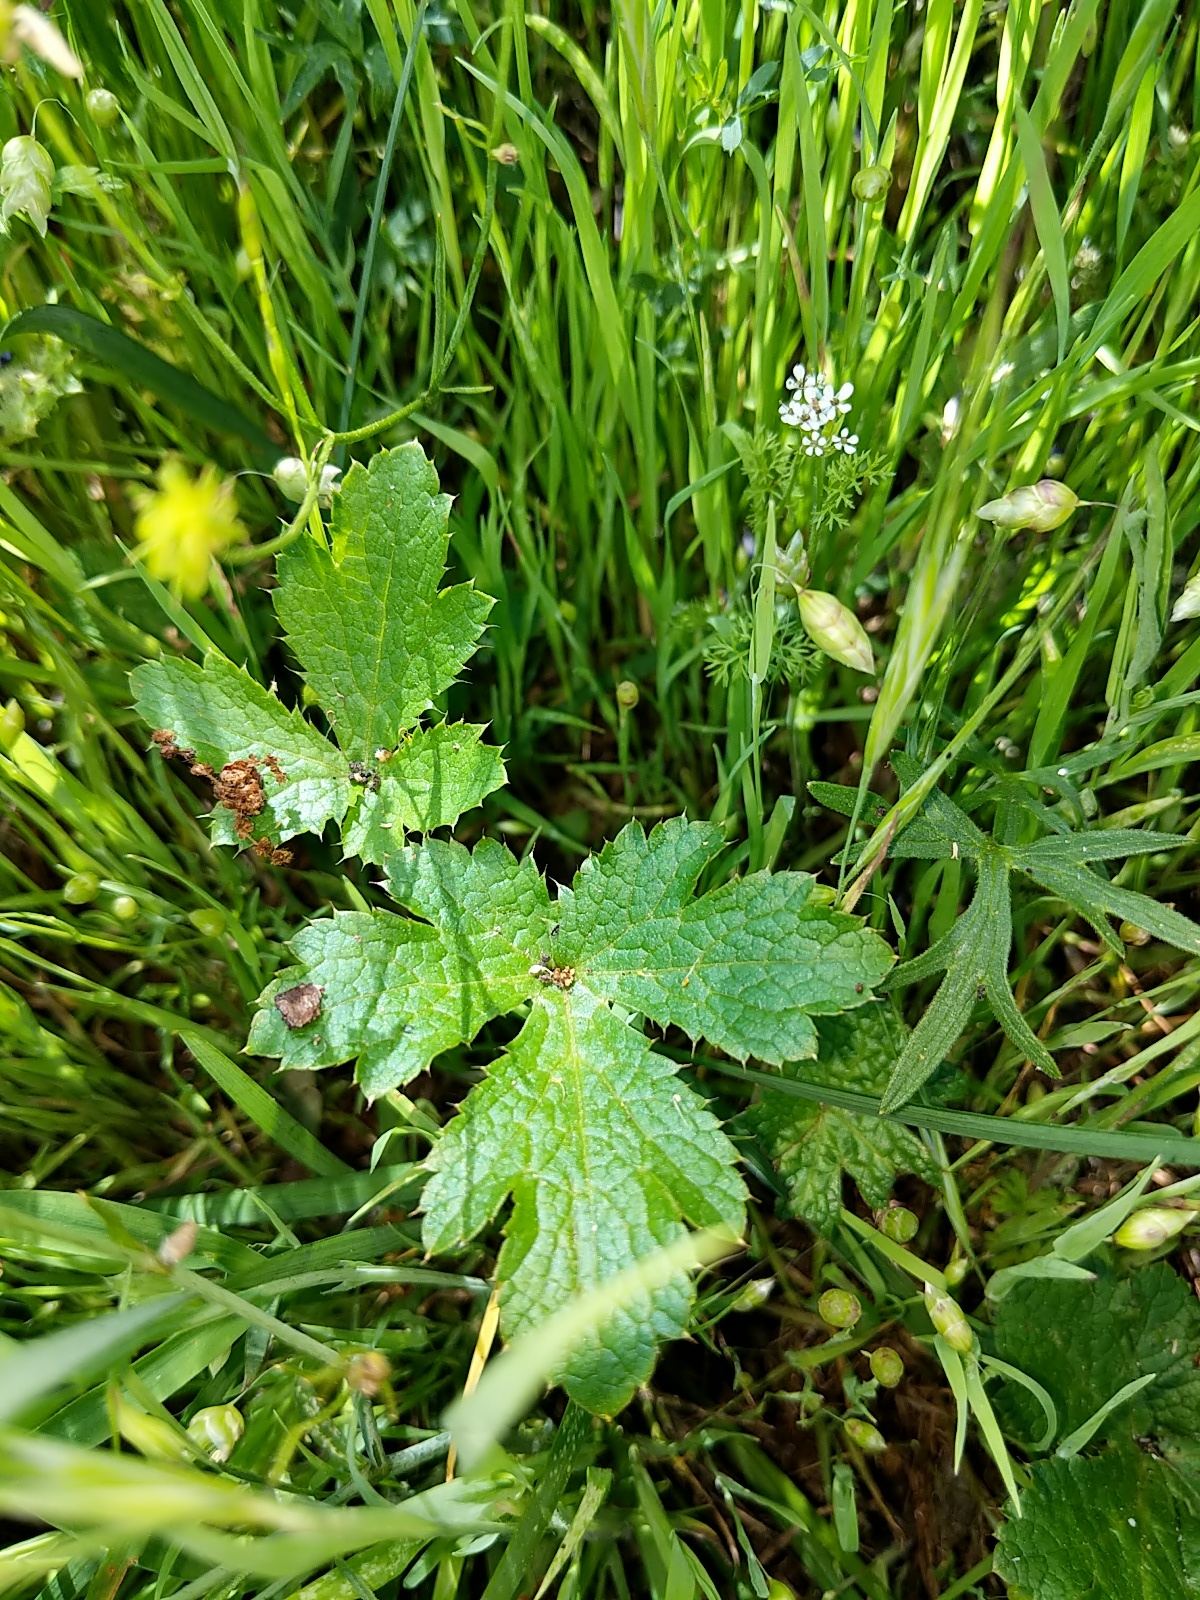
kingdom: Plantae
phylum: Tracheophyta
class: Magnoliopsida
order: Apiales
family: Apiaceae
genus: Sanicula
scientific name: Sanicula crassicaulis
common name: Western snakeroot
